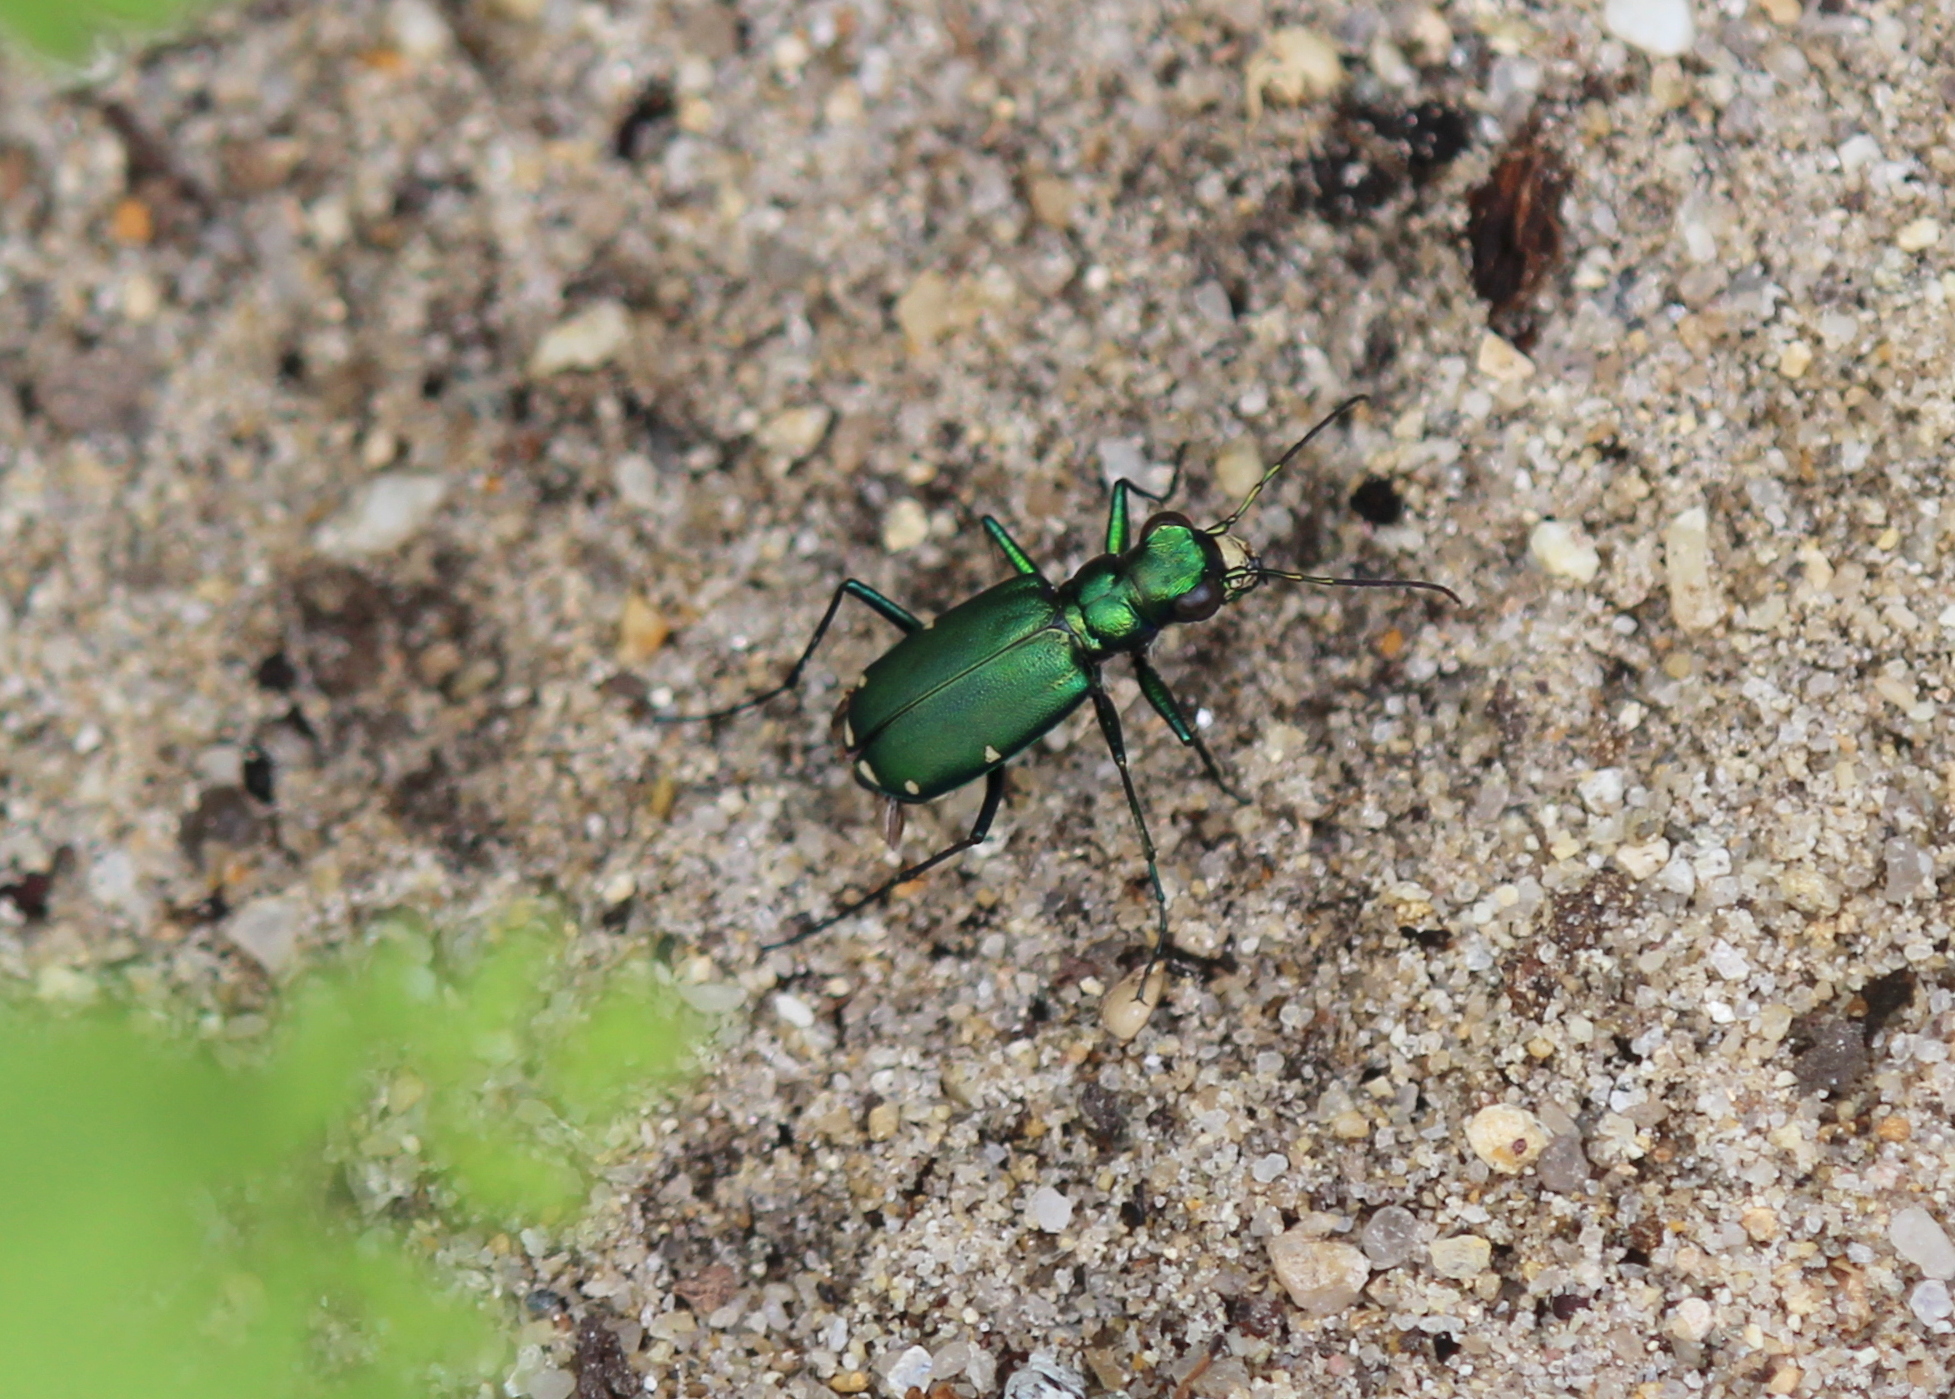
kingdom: Animalia
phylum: Arthropoda
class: Insecta
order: Coleoptera
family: Carabidae
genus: Cicindela
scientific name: Cicindela sexguttata
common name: Six-spotted tiger beetle
